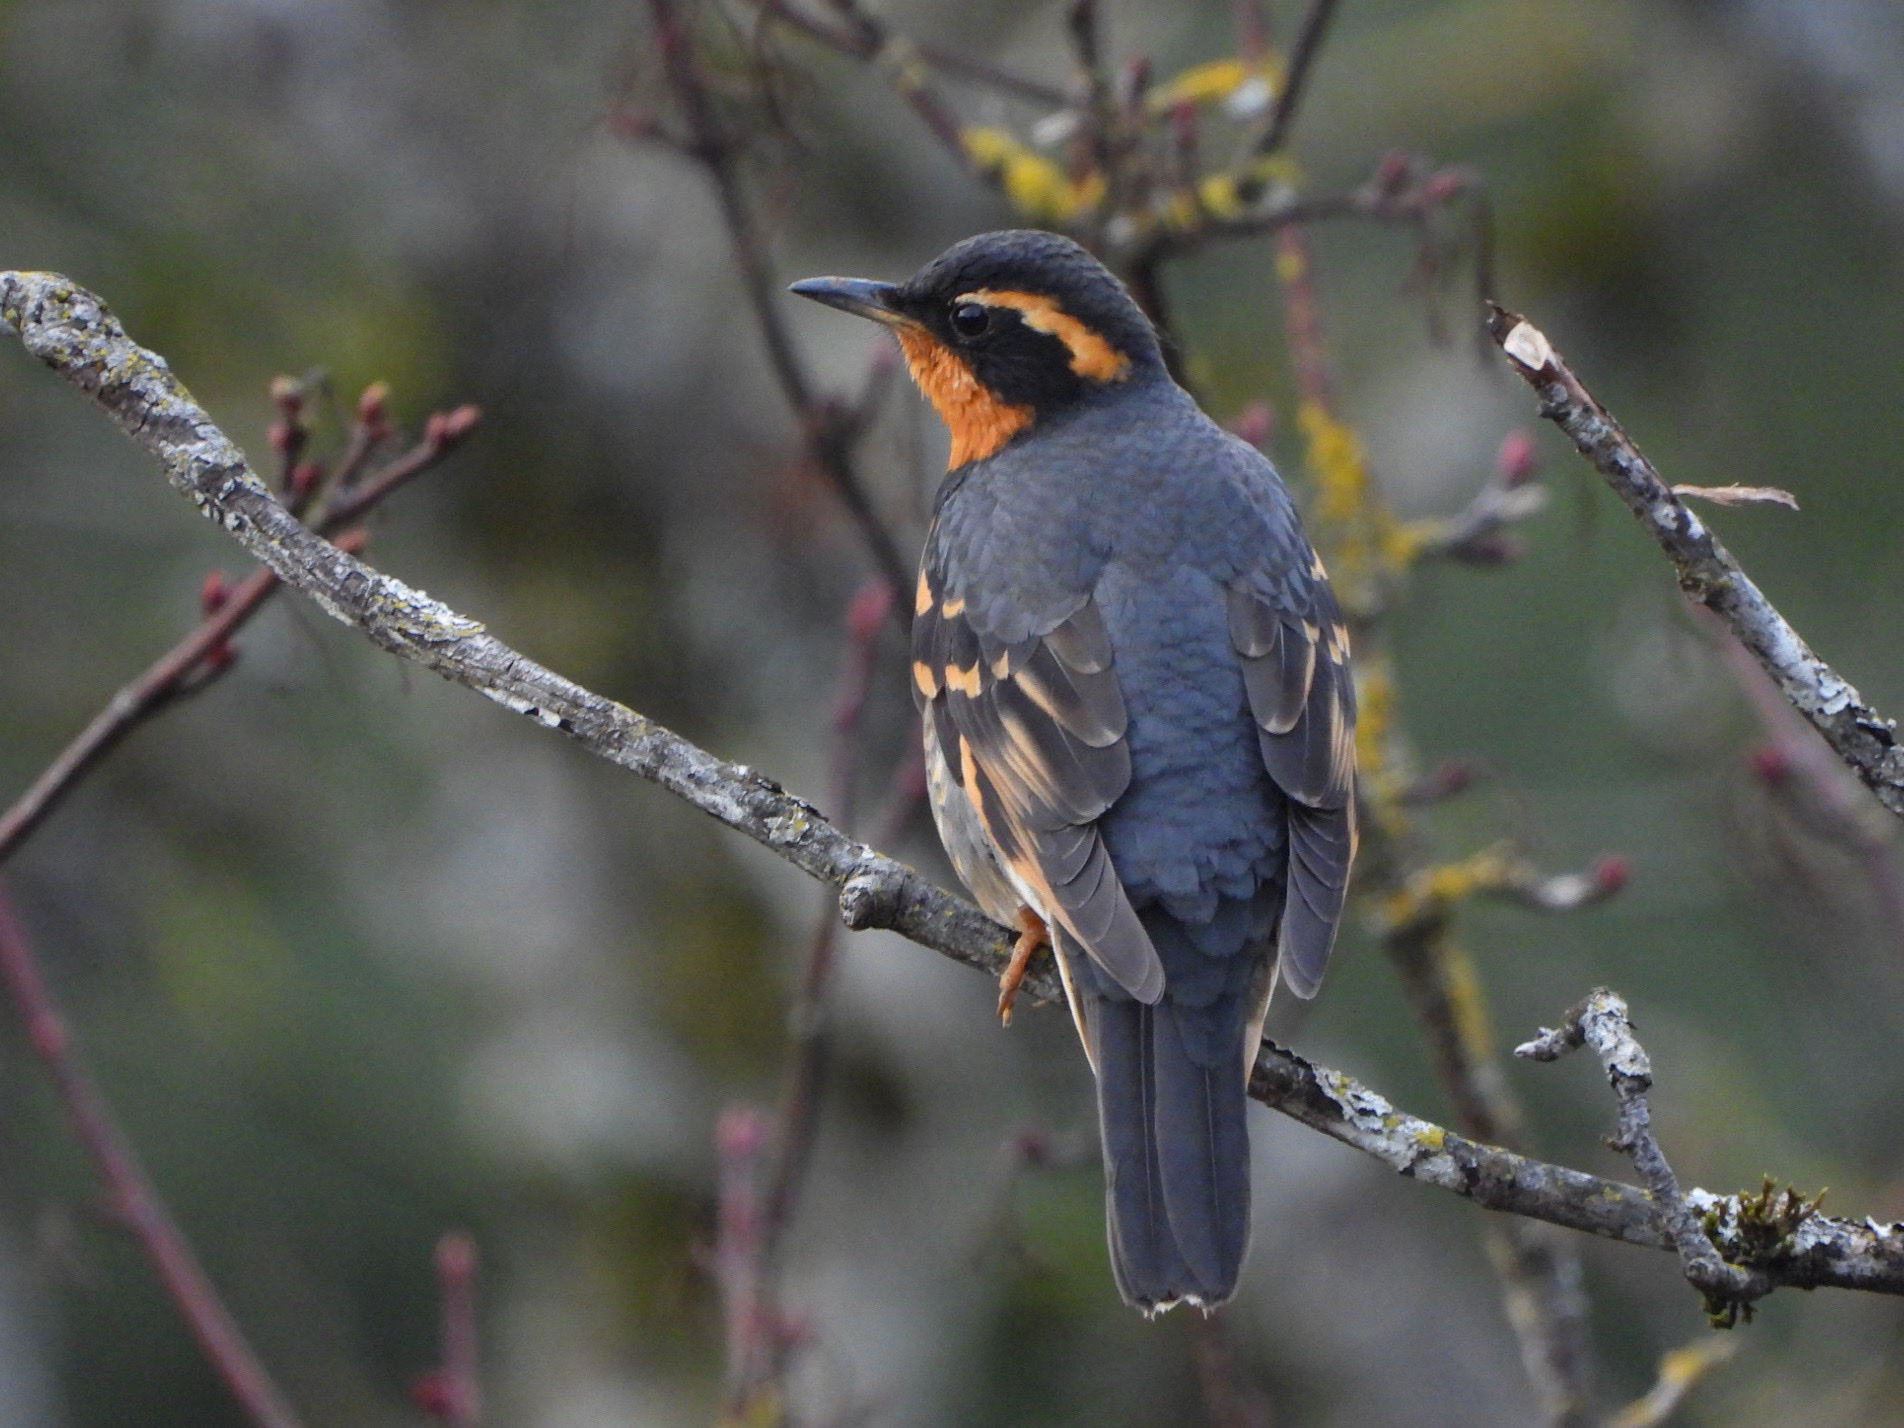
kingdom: Animalia
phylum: Chordata
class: Aves
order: Passeriformes
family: Turdidae
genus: Ixoreus
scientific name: Ixoreus naevius
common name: Varied thrush
